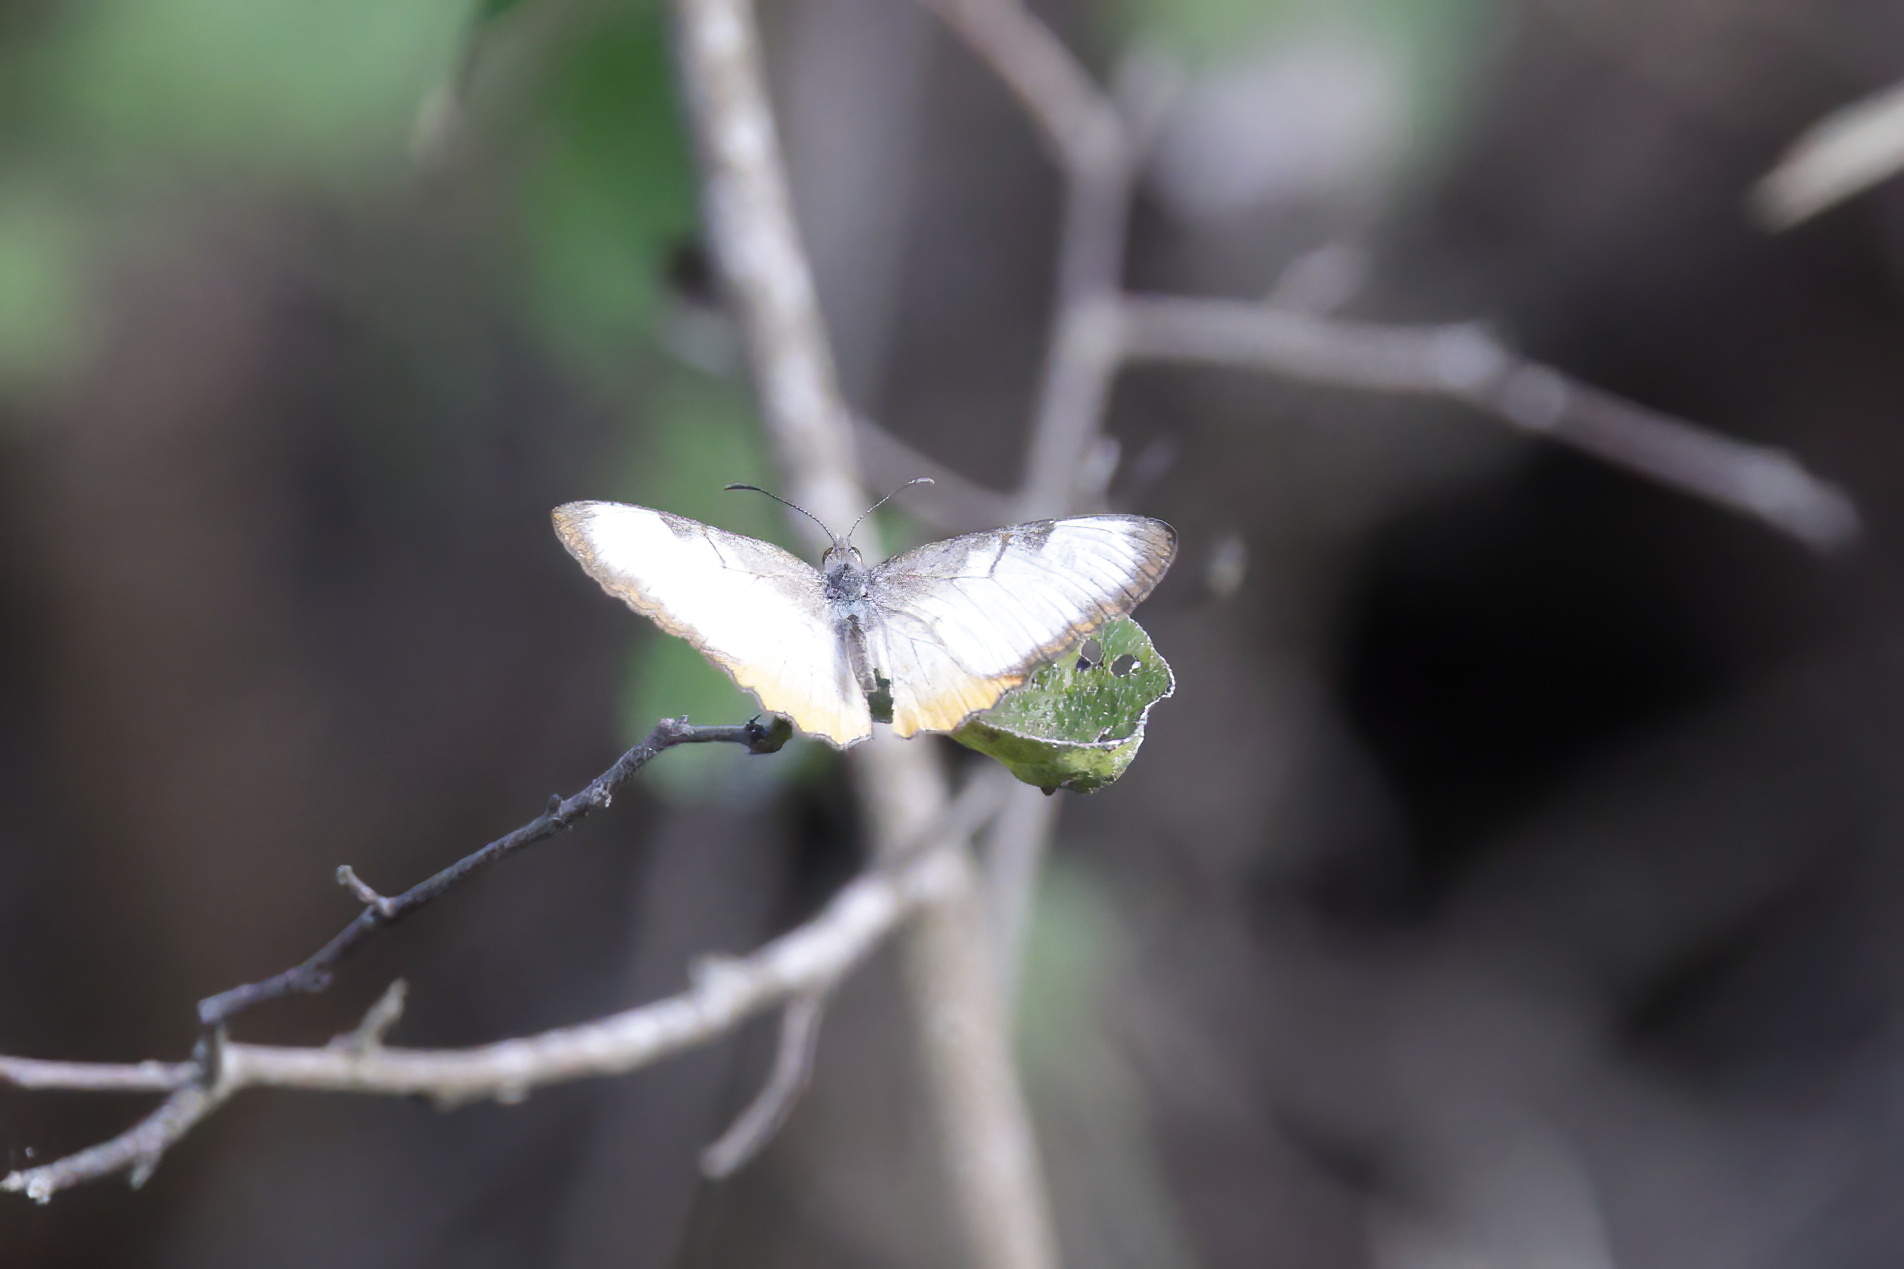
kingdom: Animalia
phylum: Arthropoda
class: Insecta
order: Lepidoptera
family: Nymphalidae
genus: Mestra
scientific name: Mestra amymone
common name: Common mestra
